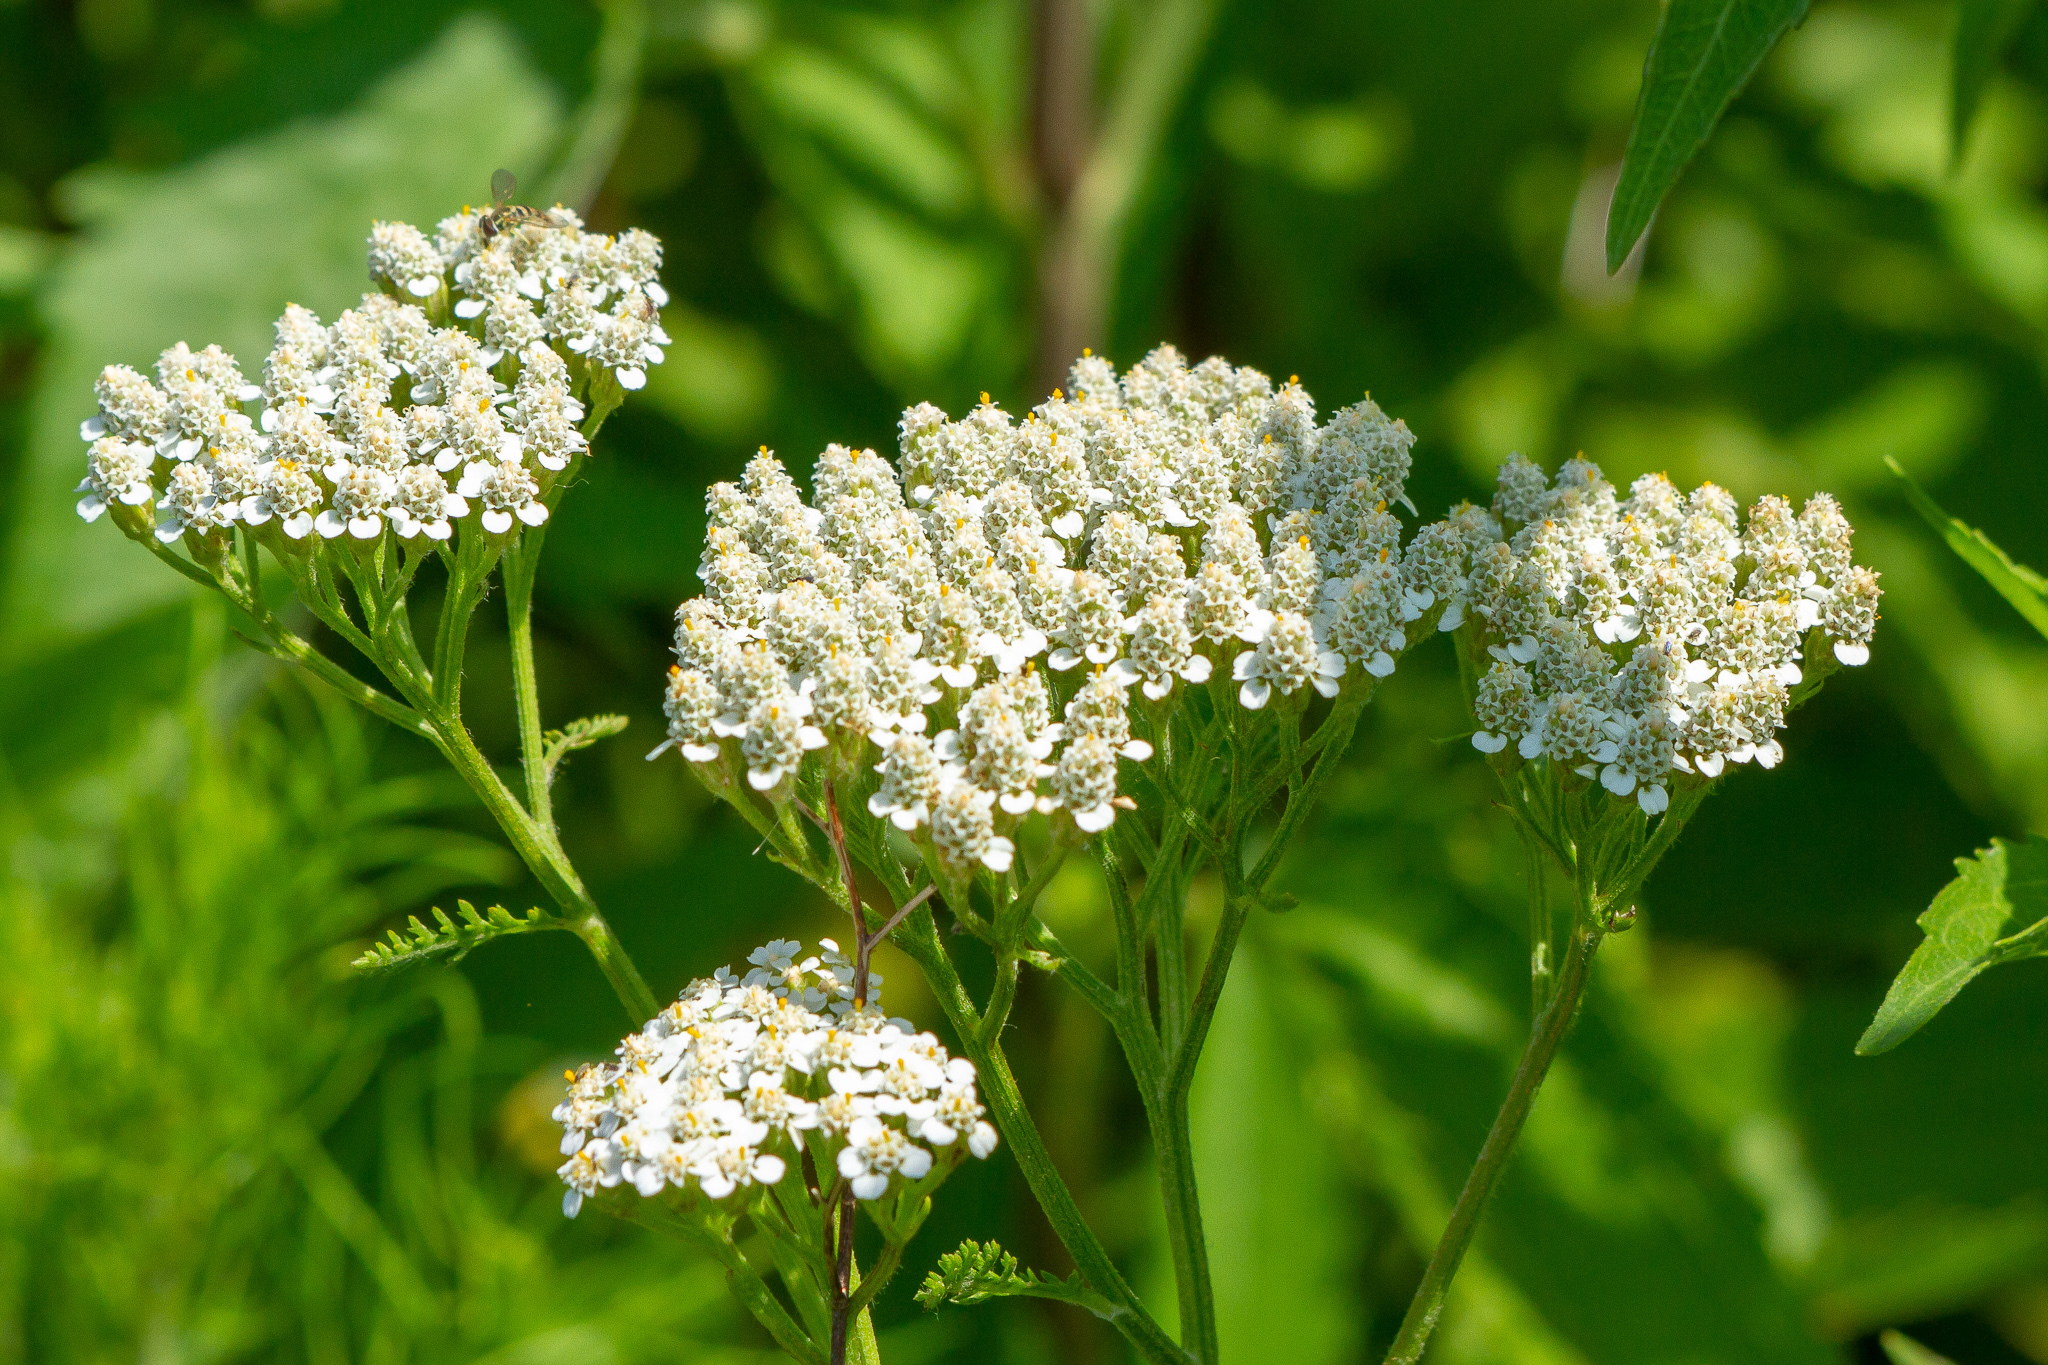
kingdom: Plantae
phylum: Tracheophyta
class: Magnoliopsida
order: Asterales
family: Asteraceae
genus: Achillea
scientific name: Achillea millefolium
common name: Yarrow
